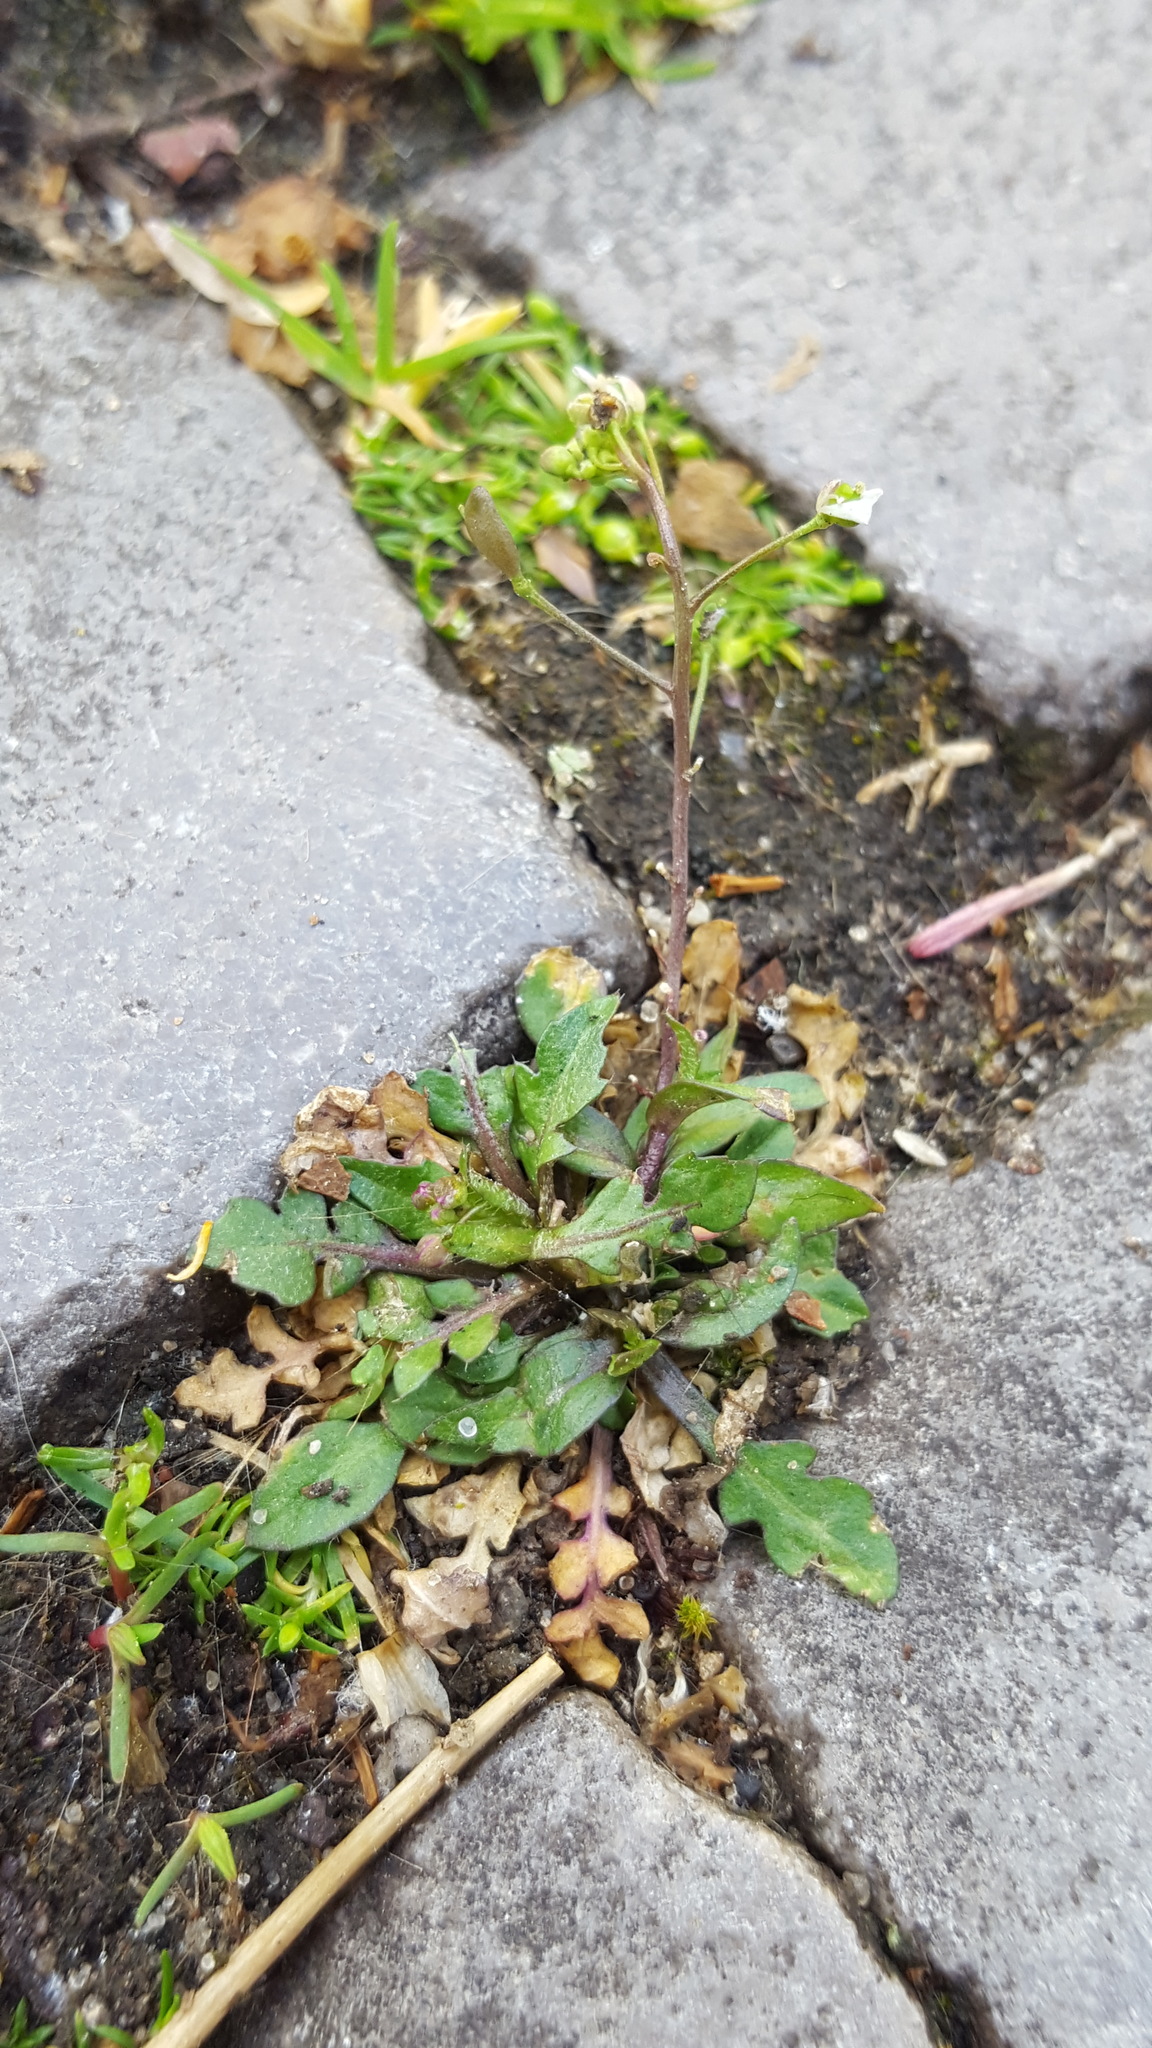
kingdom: Plantae
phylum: Tracheophyta
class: Magnoliopsida
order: Brassicales
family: Brassicaceae
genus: Capsella
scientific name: Capsella bursa-pastoris
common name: Shepherd's purse
